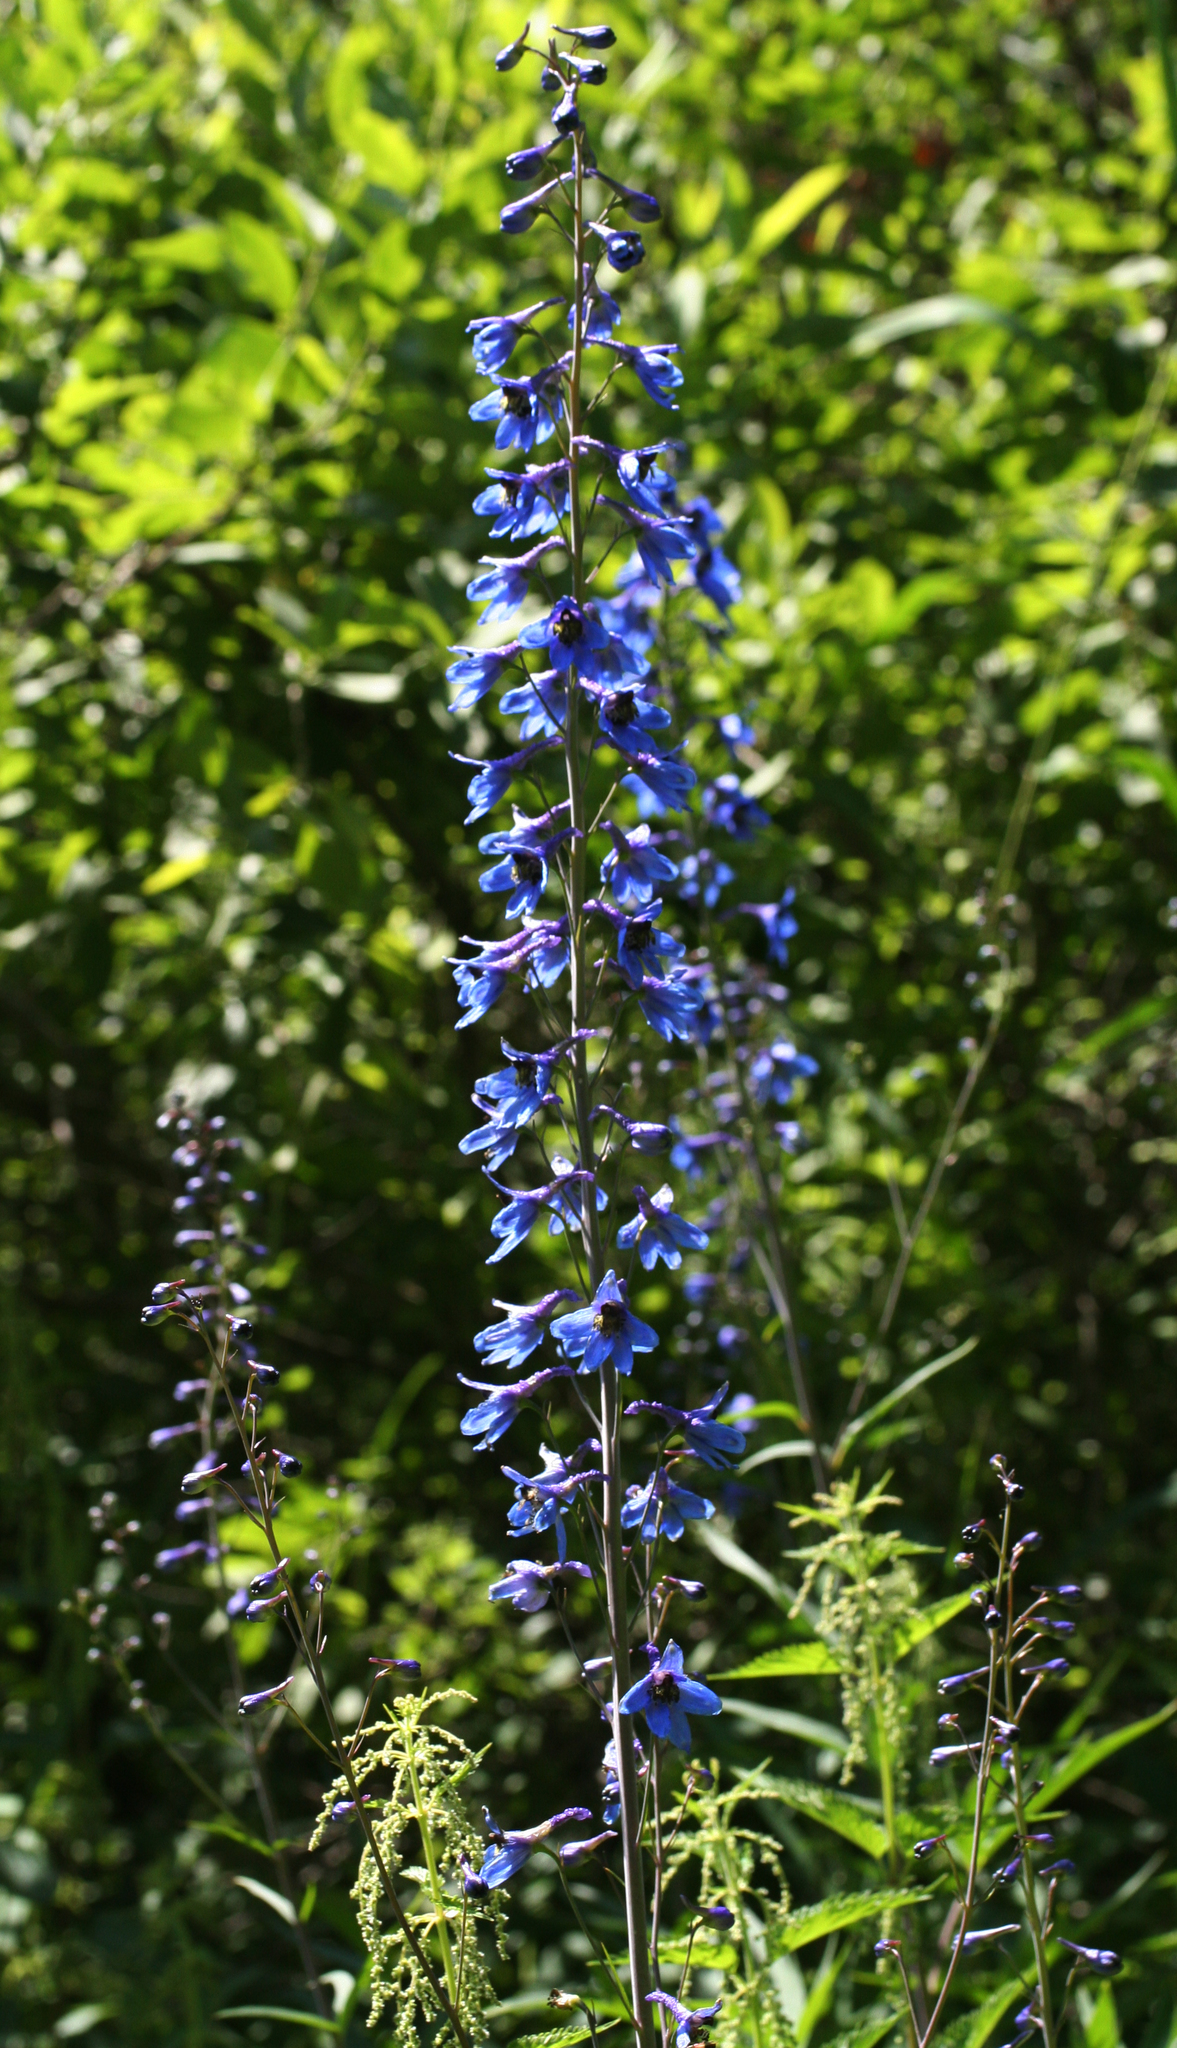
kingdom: Plantae
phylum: Tracheophyta
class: Magnoliopsida
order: Ranunculales
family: Ranunculaceae
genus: Delphinium
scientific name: Delphinium elatum
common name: Candle larkspur
